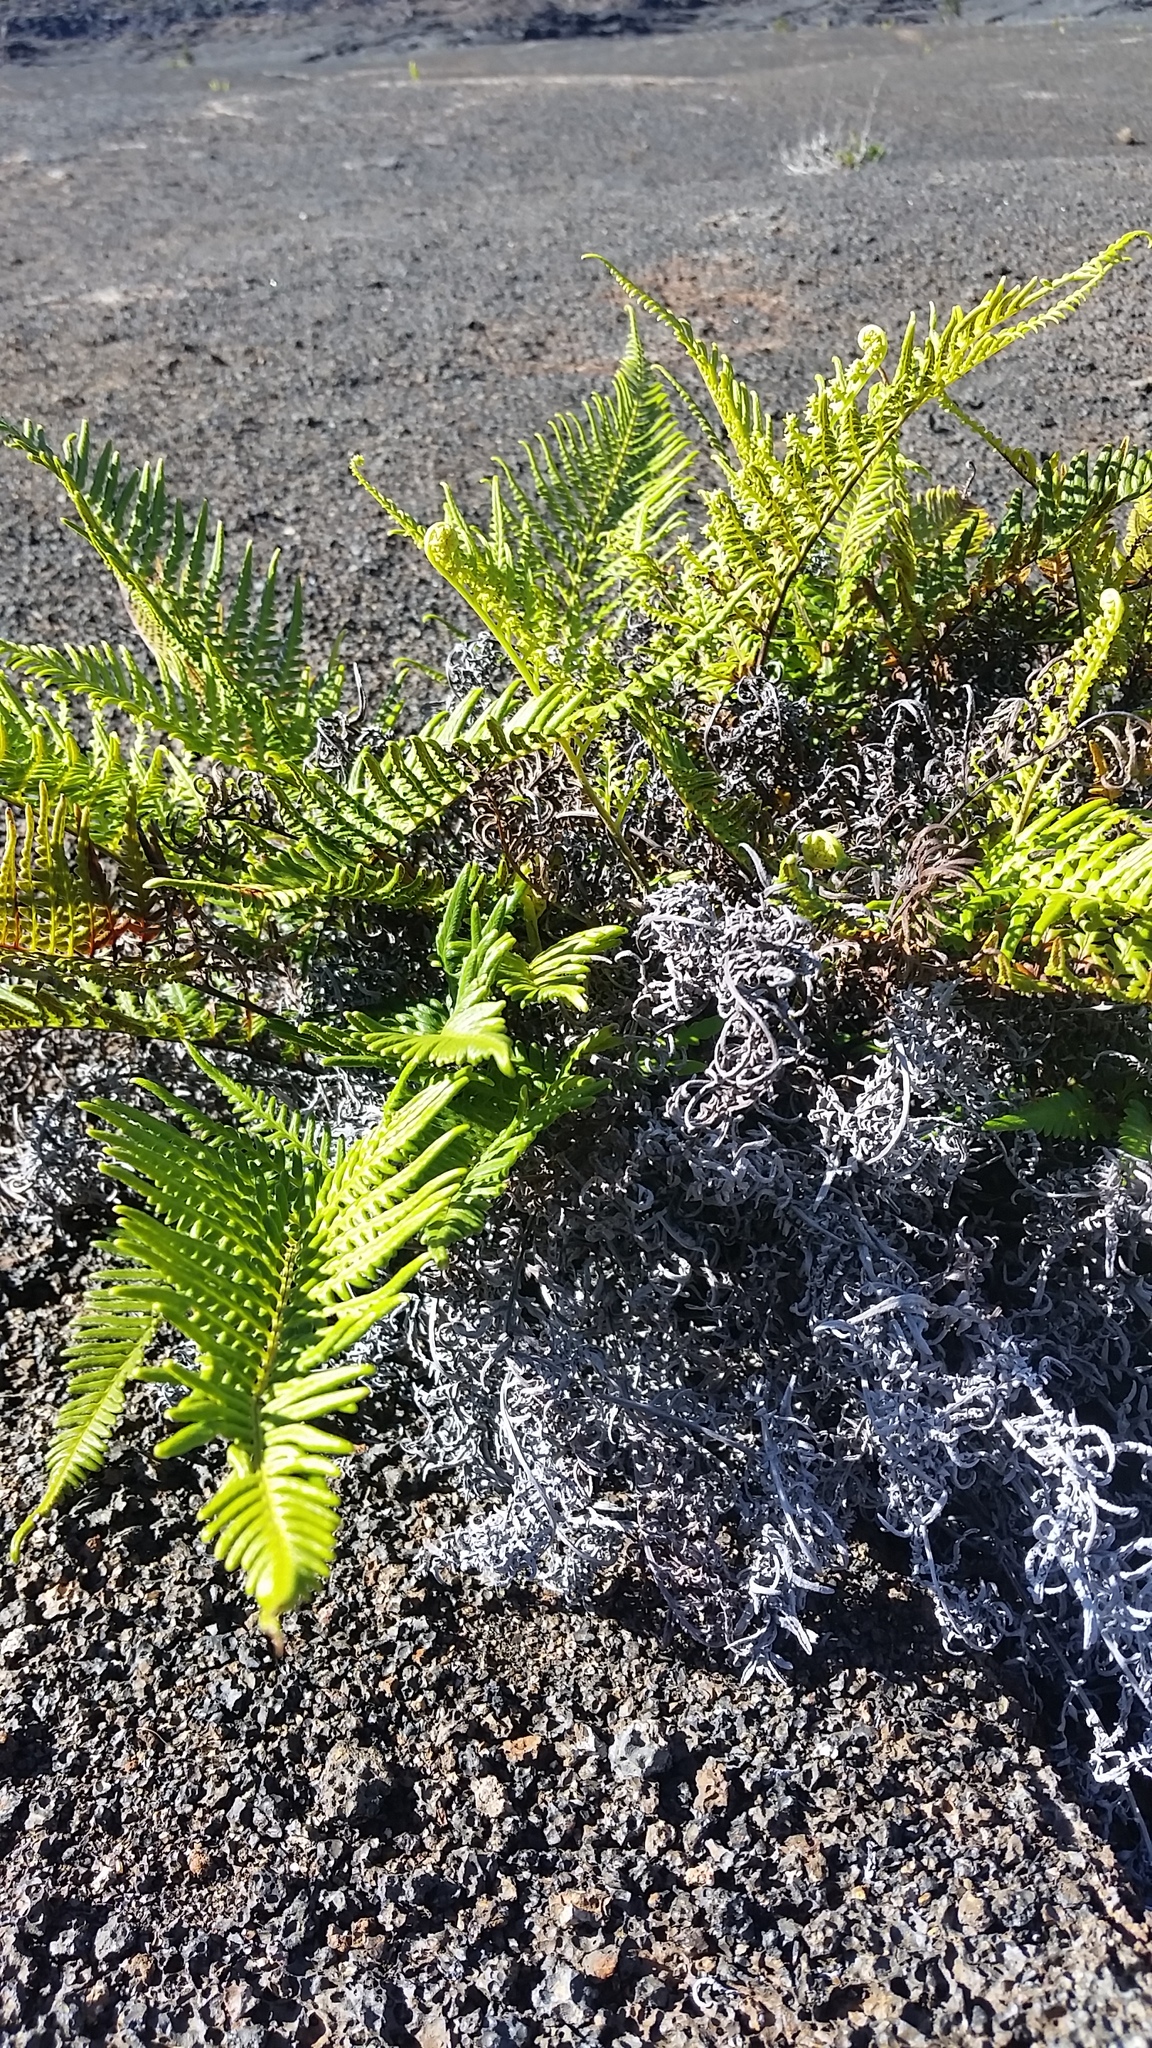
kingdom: Plantae
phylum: Tracheophyta
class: Polypodiopsida
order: Polypodiales
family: Pteridaceae
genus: Pityrogramma
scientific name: Pityrogramma austroamericana
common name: Leatherleaf goldback fern
